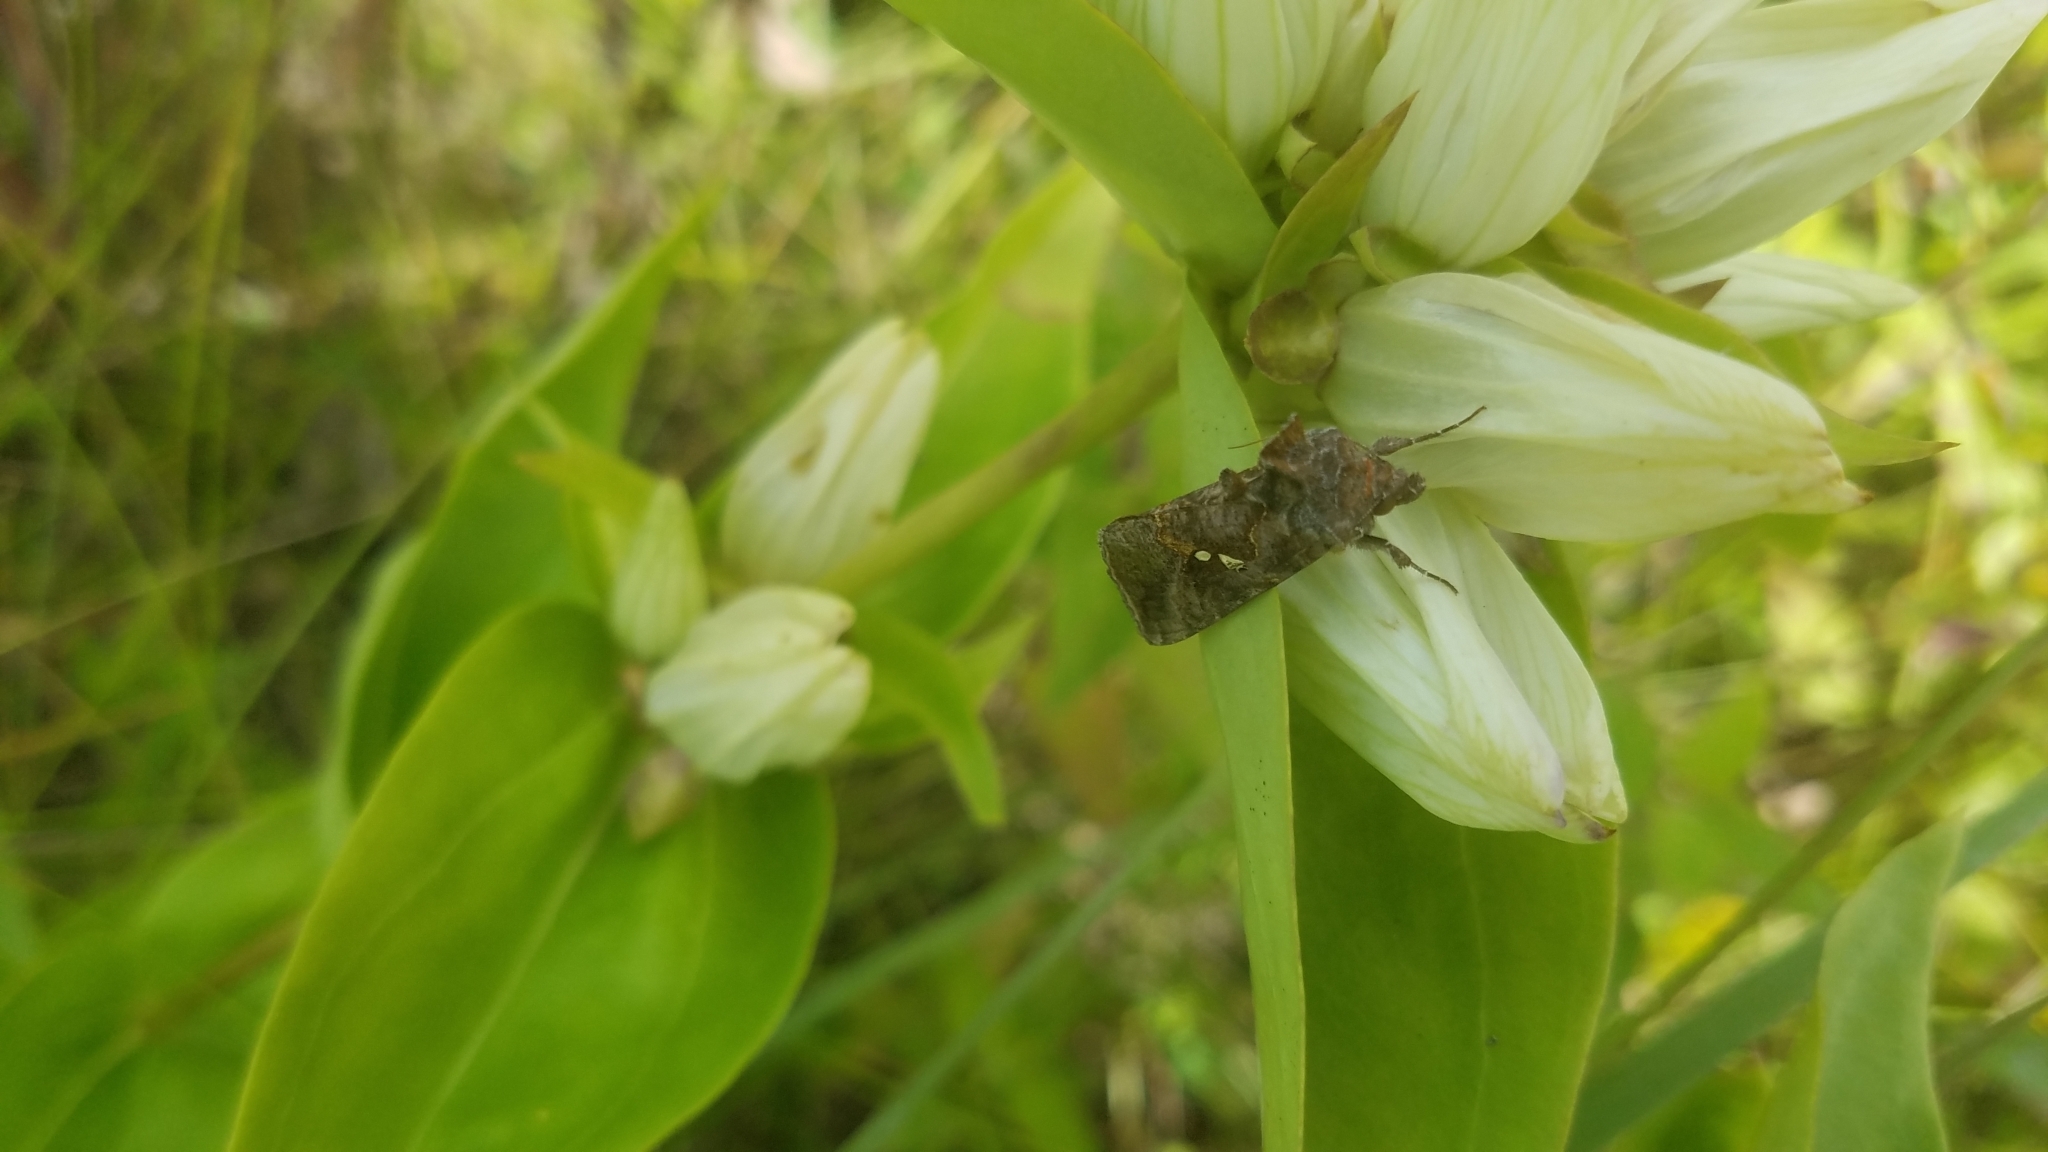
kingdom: Animalia
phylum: Arthropoda
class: Insecta
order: Lepidoptera
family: Noctuidae
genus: Autographa
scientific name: Autographa precationis
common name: Common looper moth
